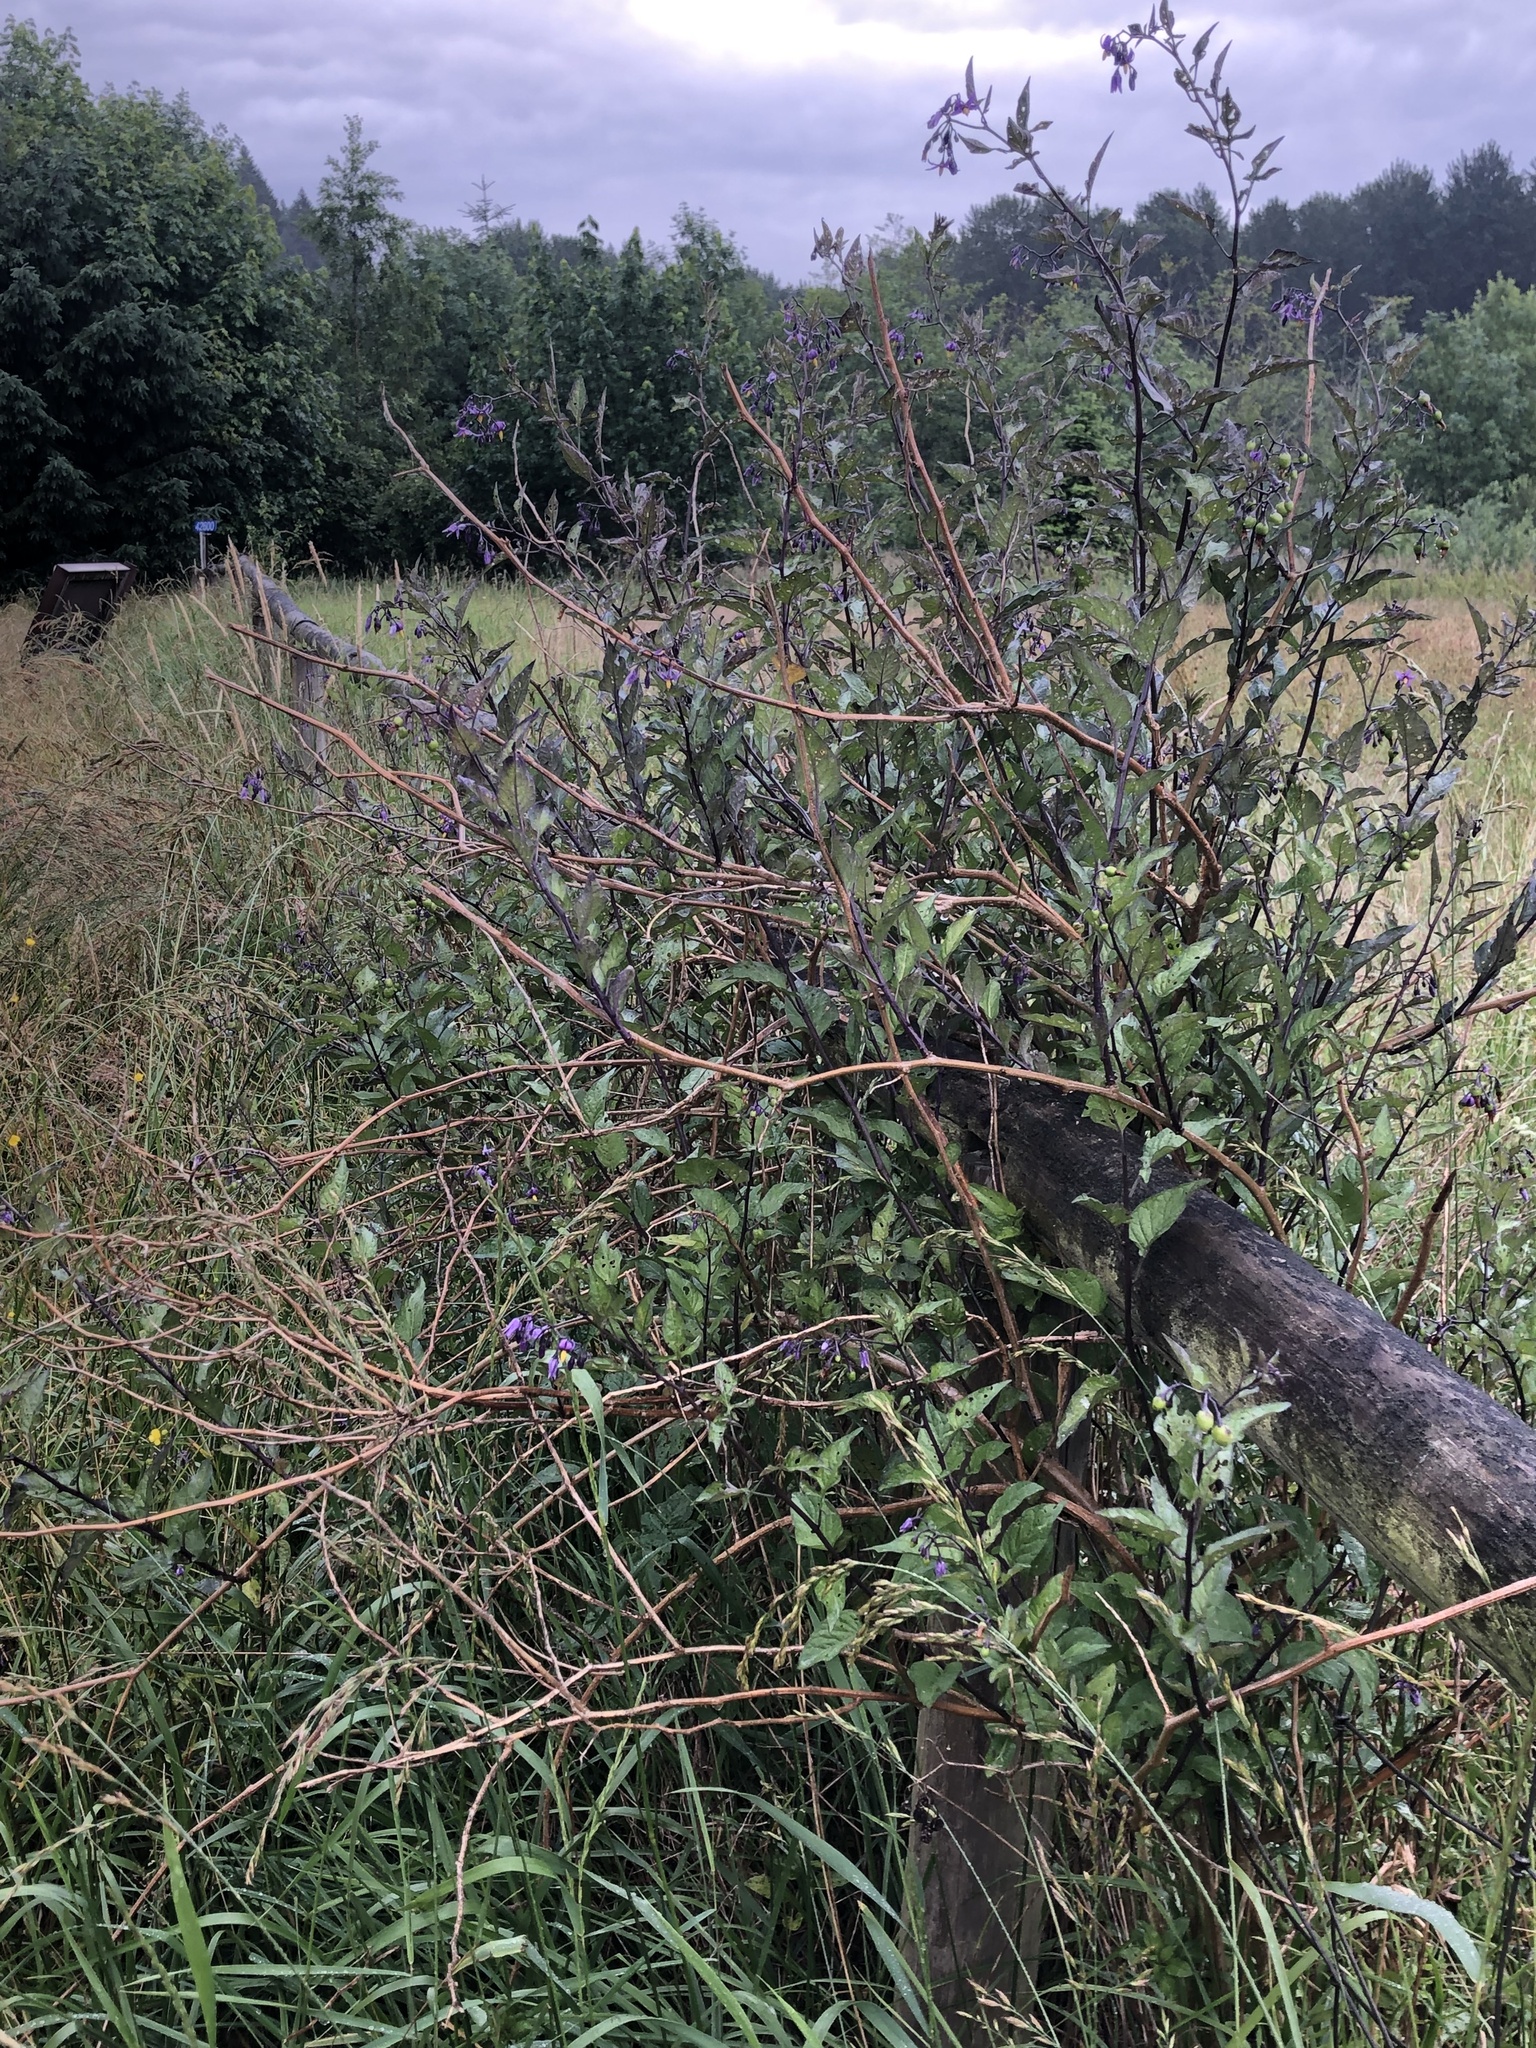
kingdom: Plantae
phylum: Tracheophyta
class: Magnoliopsida
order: Solanales
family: Solanaceae
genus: Solanum
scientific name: Solanum dulcamara
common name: Climbing nightshade
